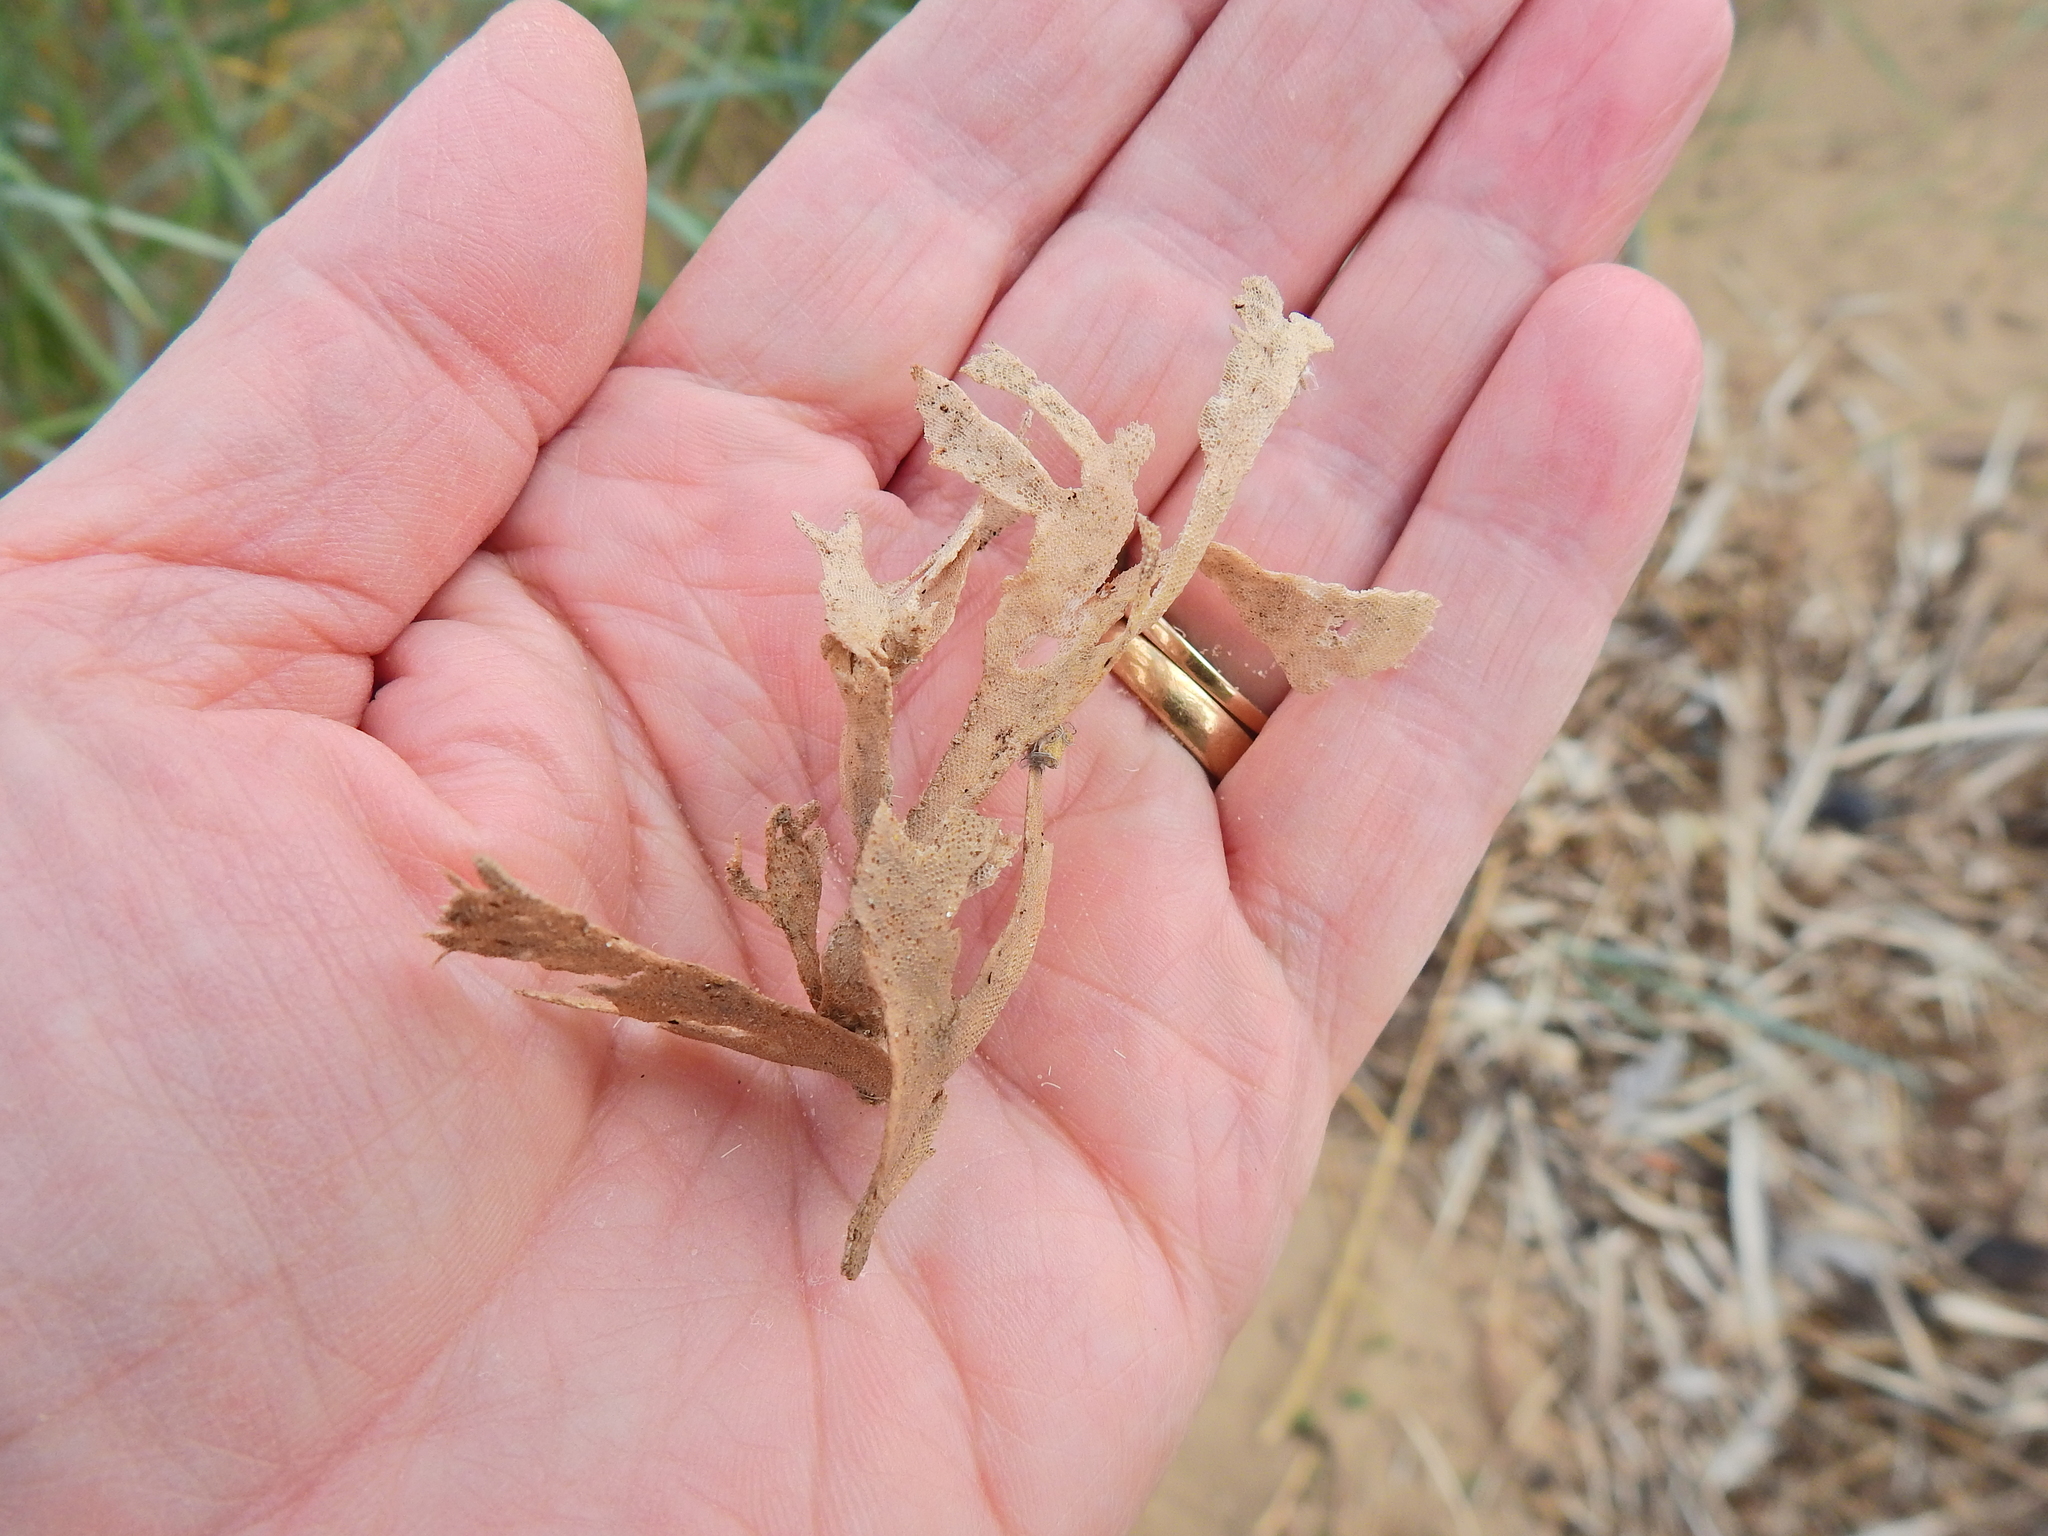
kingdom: Animalia
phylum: Bryozoa
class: Gymnolaemata
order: Cheilostomatida
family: Flustridae
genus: Flustra
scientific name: Flustra foliacea
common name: Hornwrack
